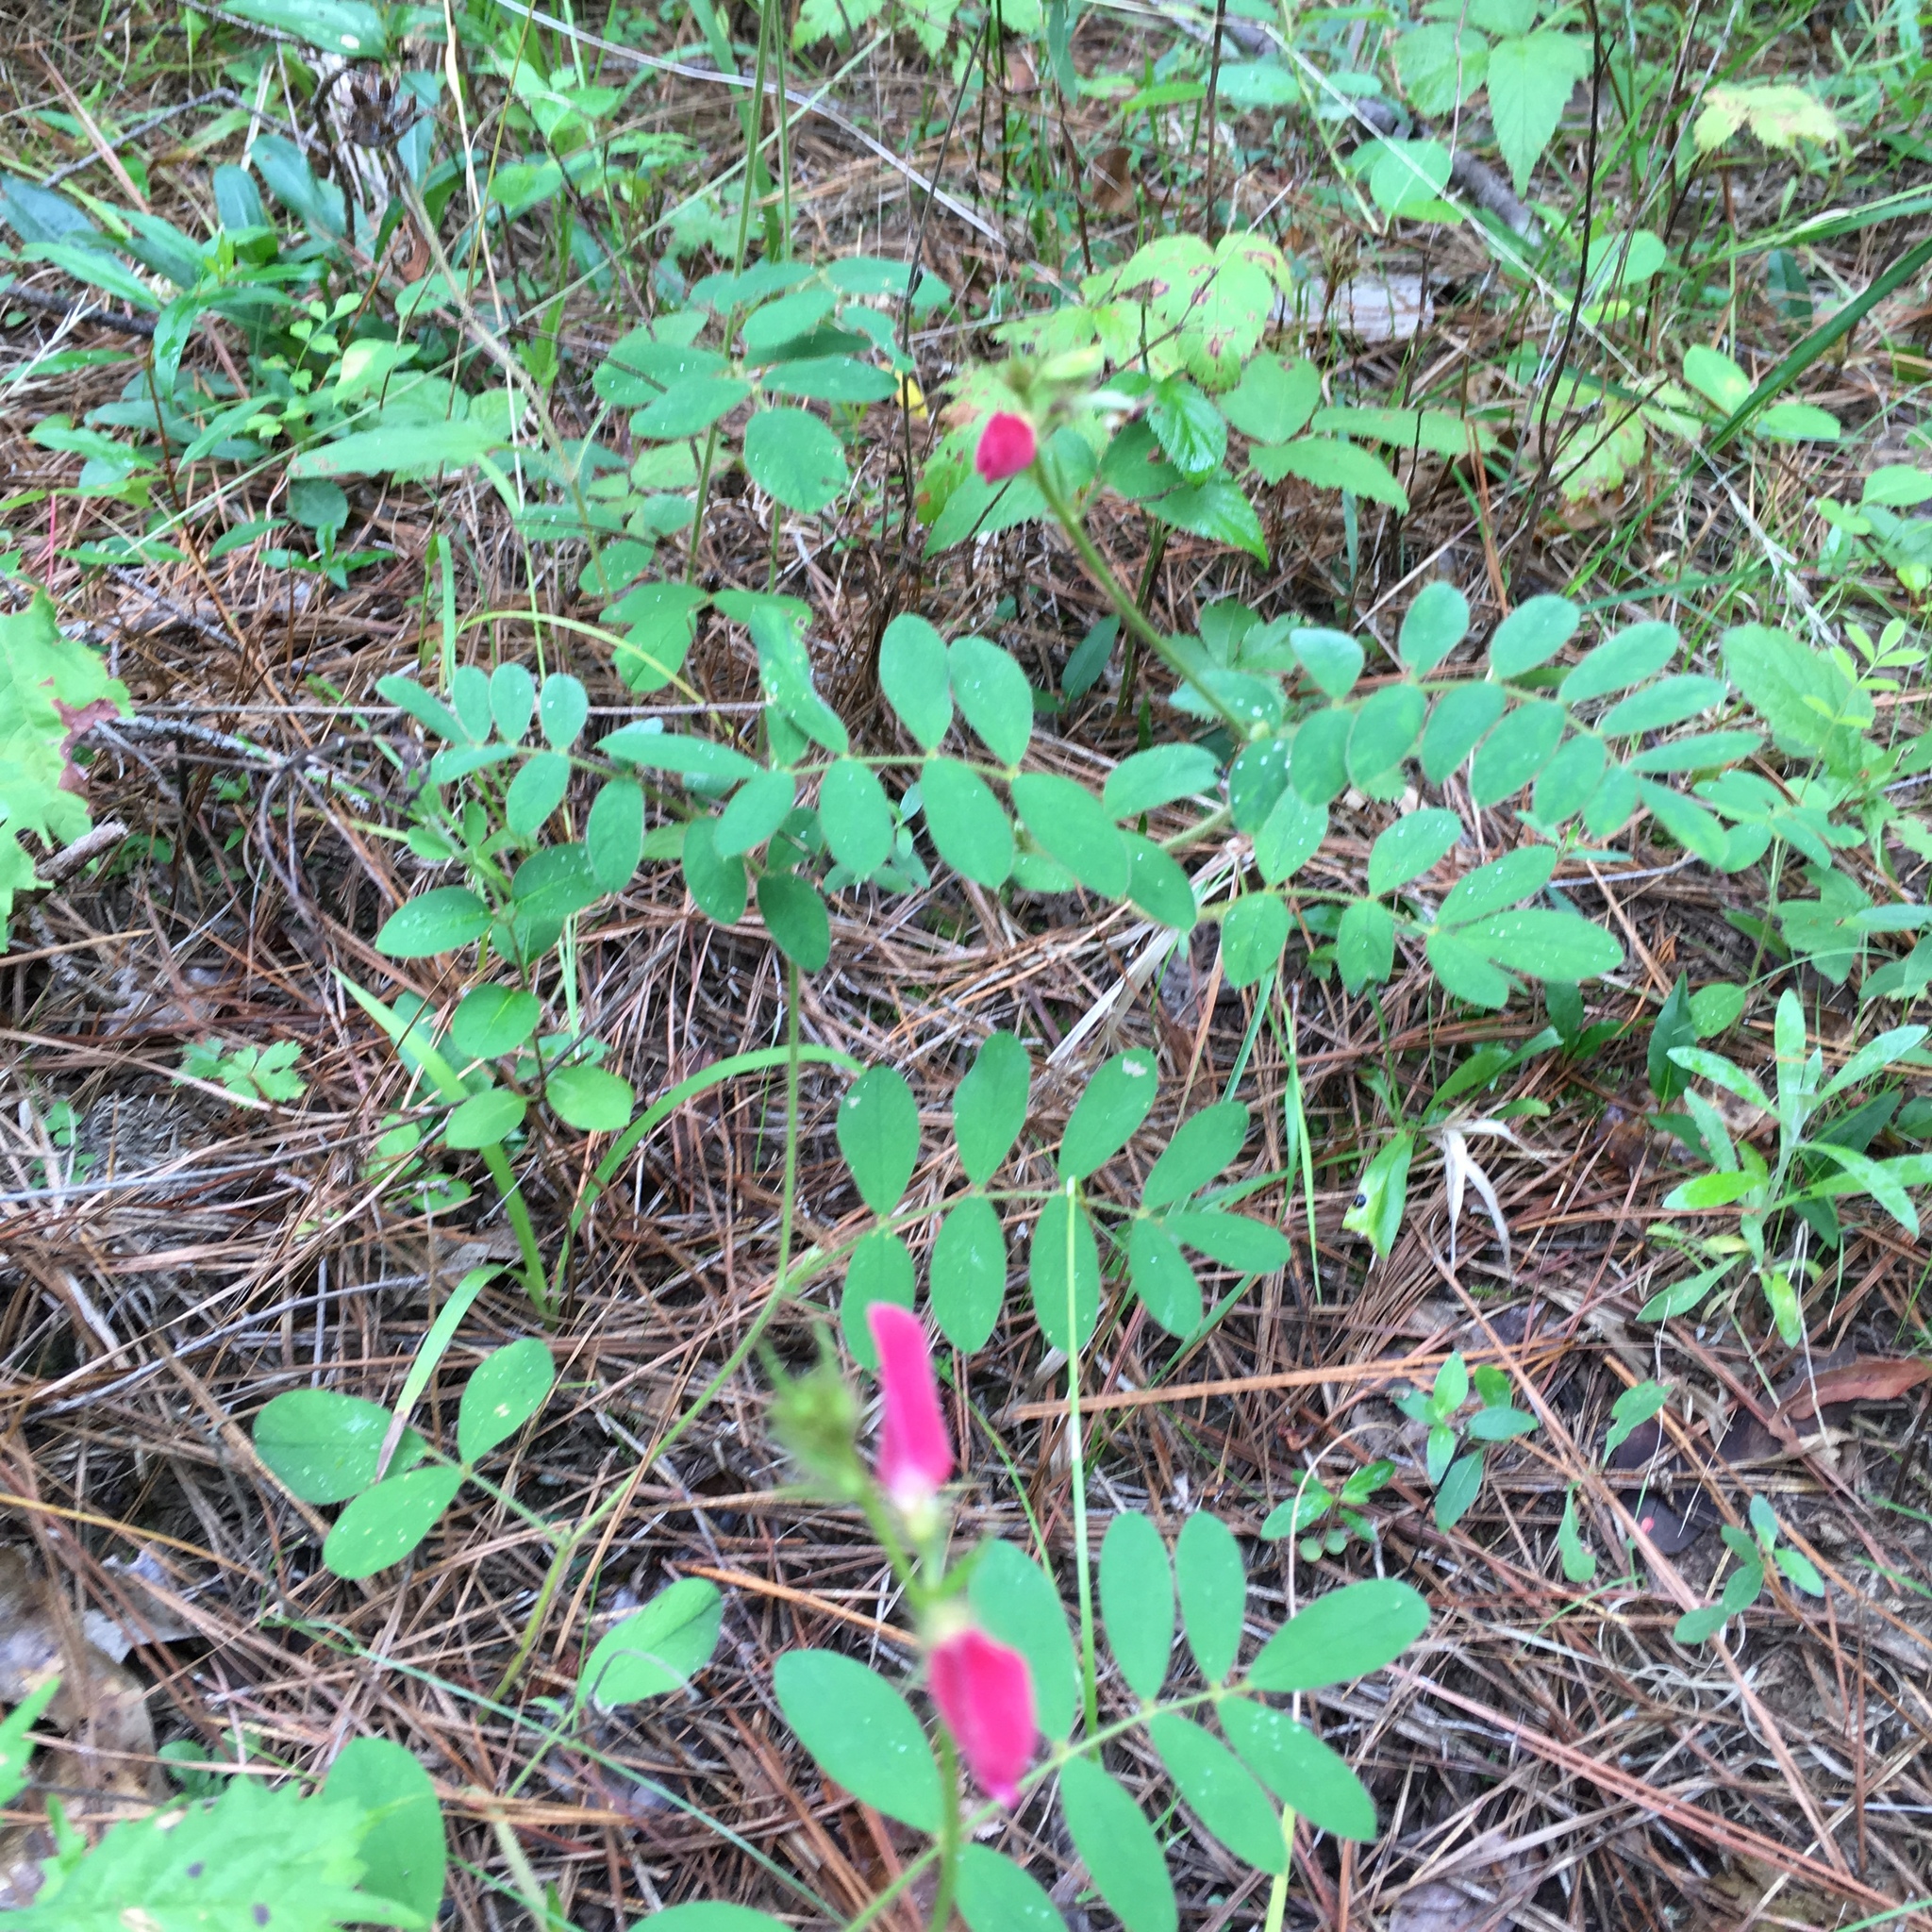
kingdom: Plantae
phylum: Tracheophyta
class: Magnoliopsida
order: Fabales
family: Fabaceae
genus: Tephrosia
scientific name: Tephrosia spicata
